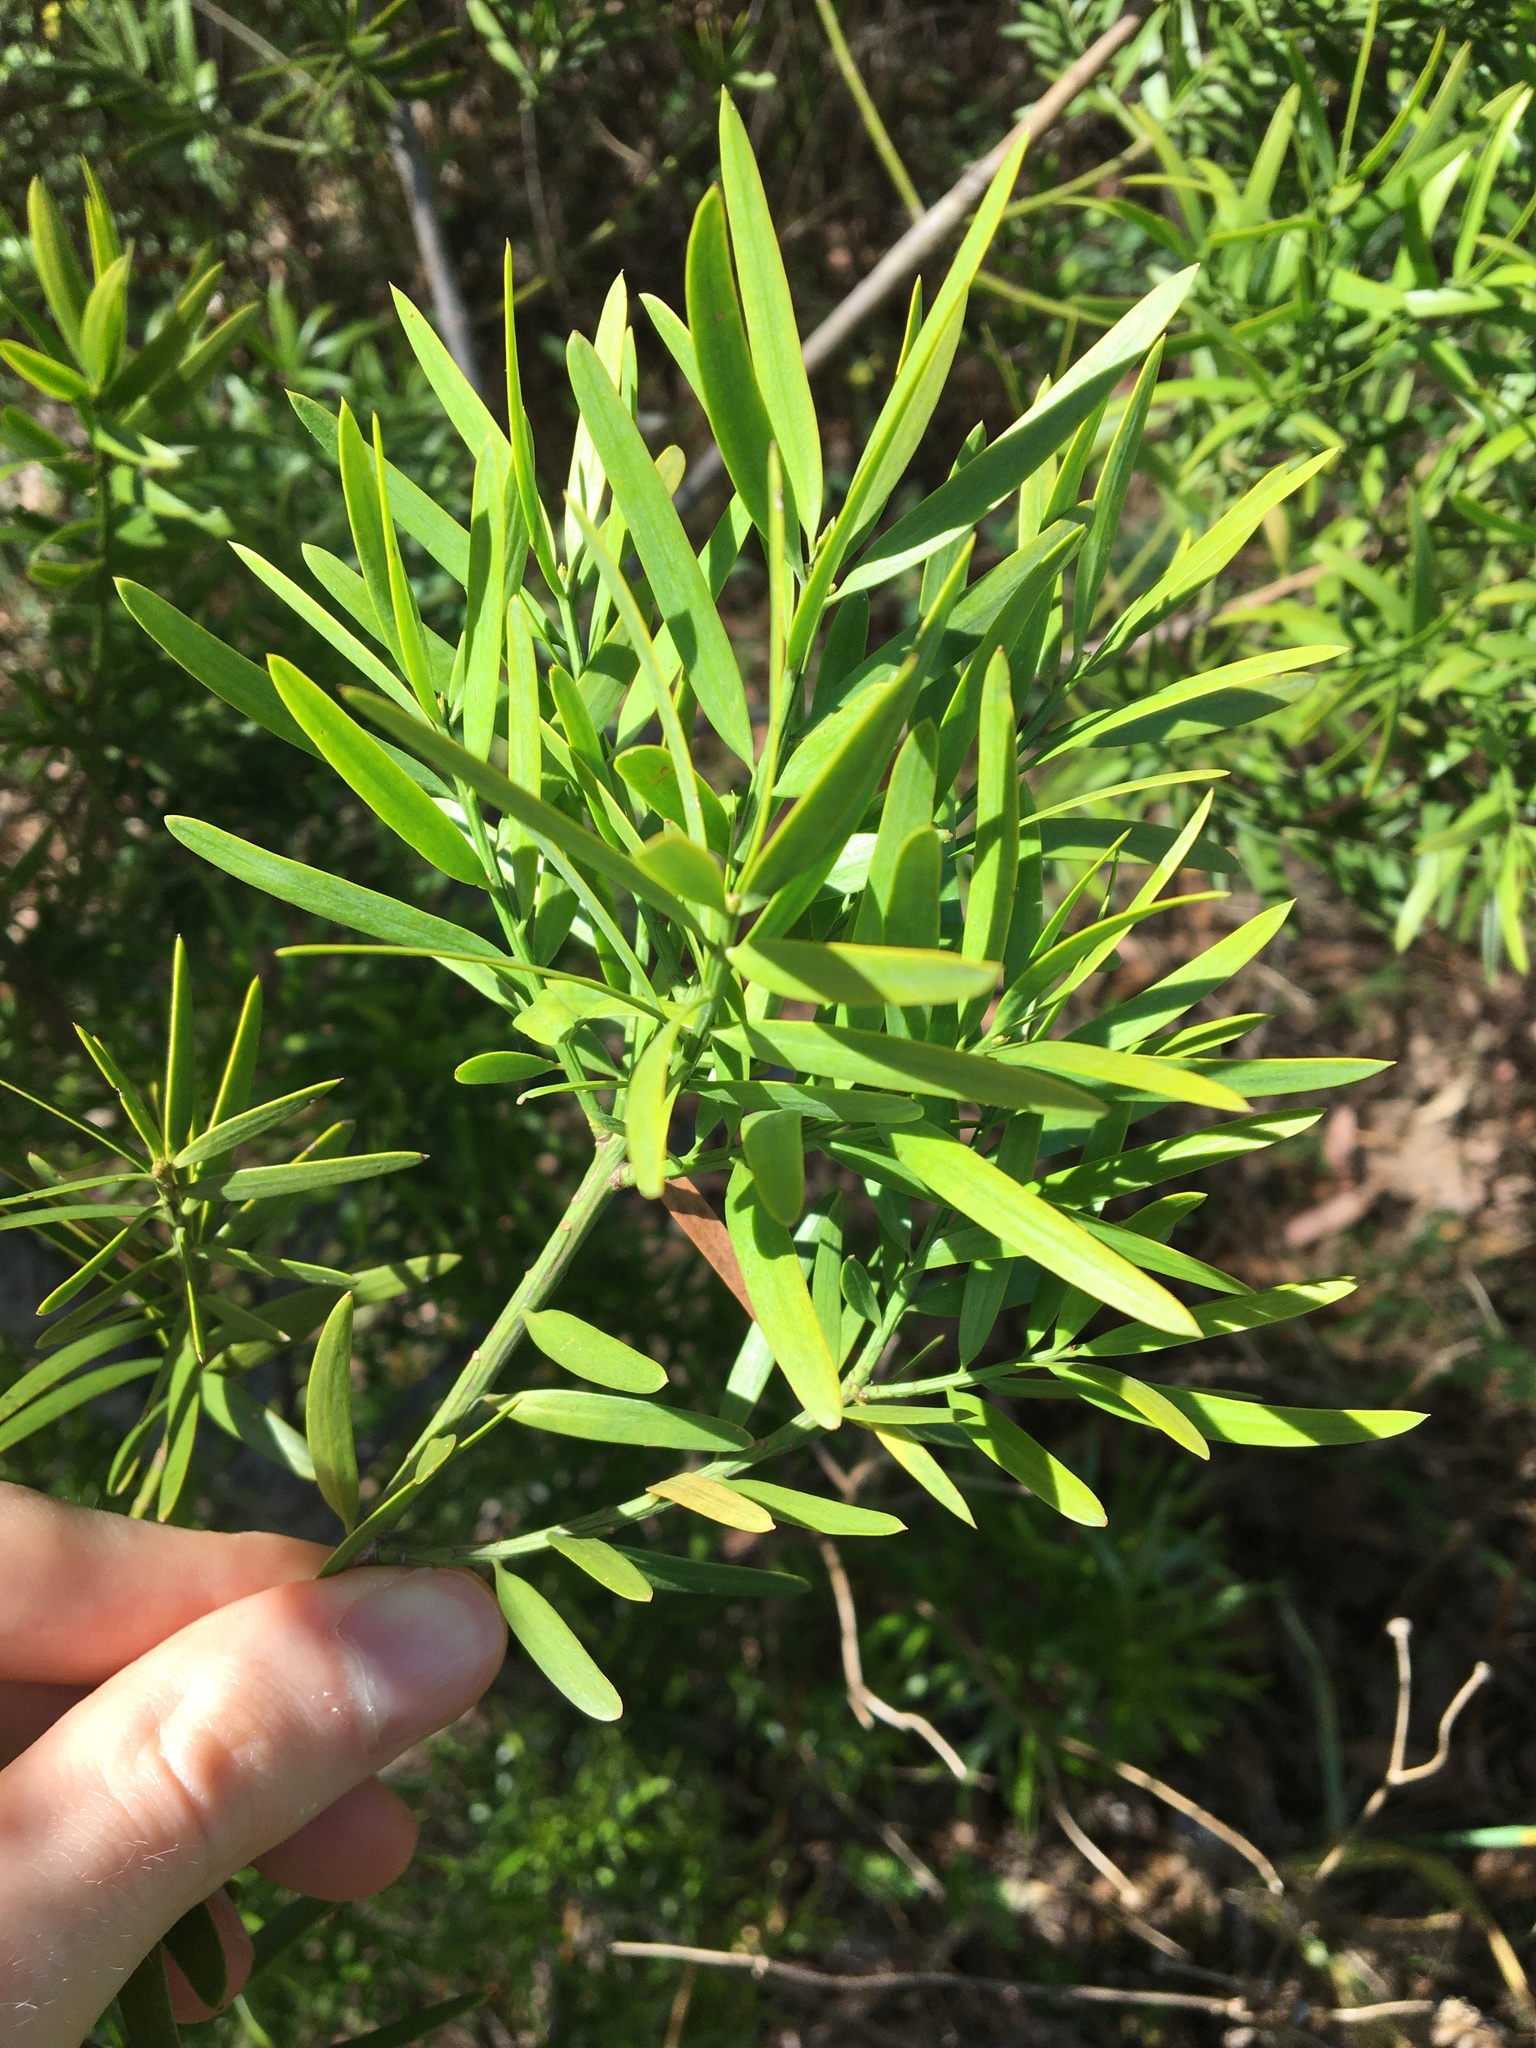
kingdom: Plantae
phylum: Tracheophyta
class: Pinopsida
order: Pinales
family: Podocarpaceae
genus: Podocarpus
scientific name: Podocarpus spinulosus
